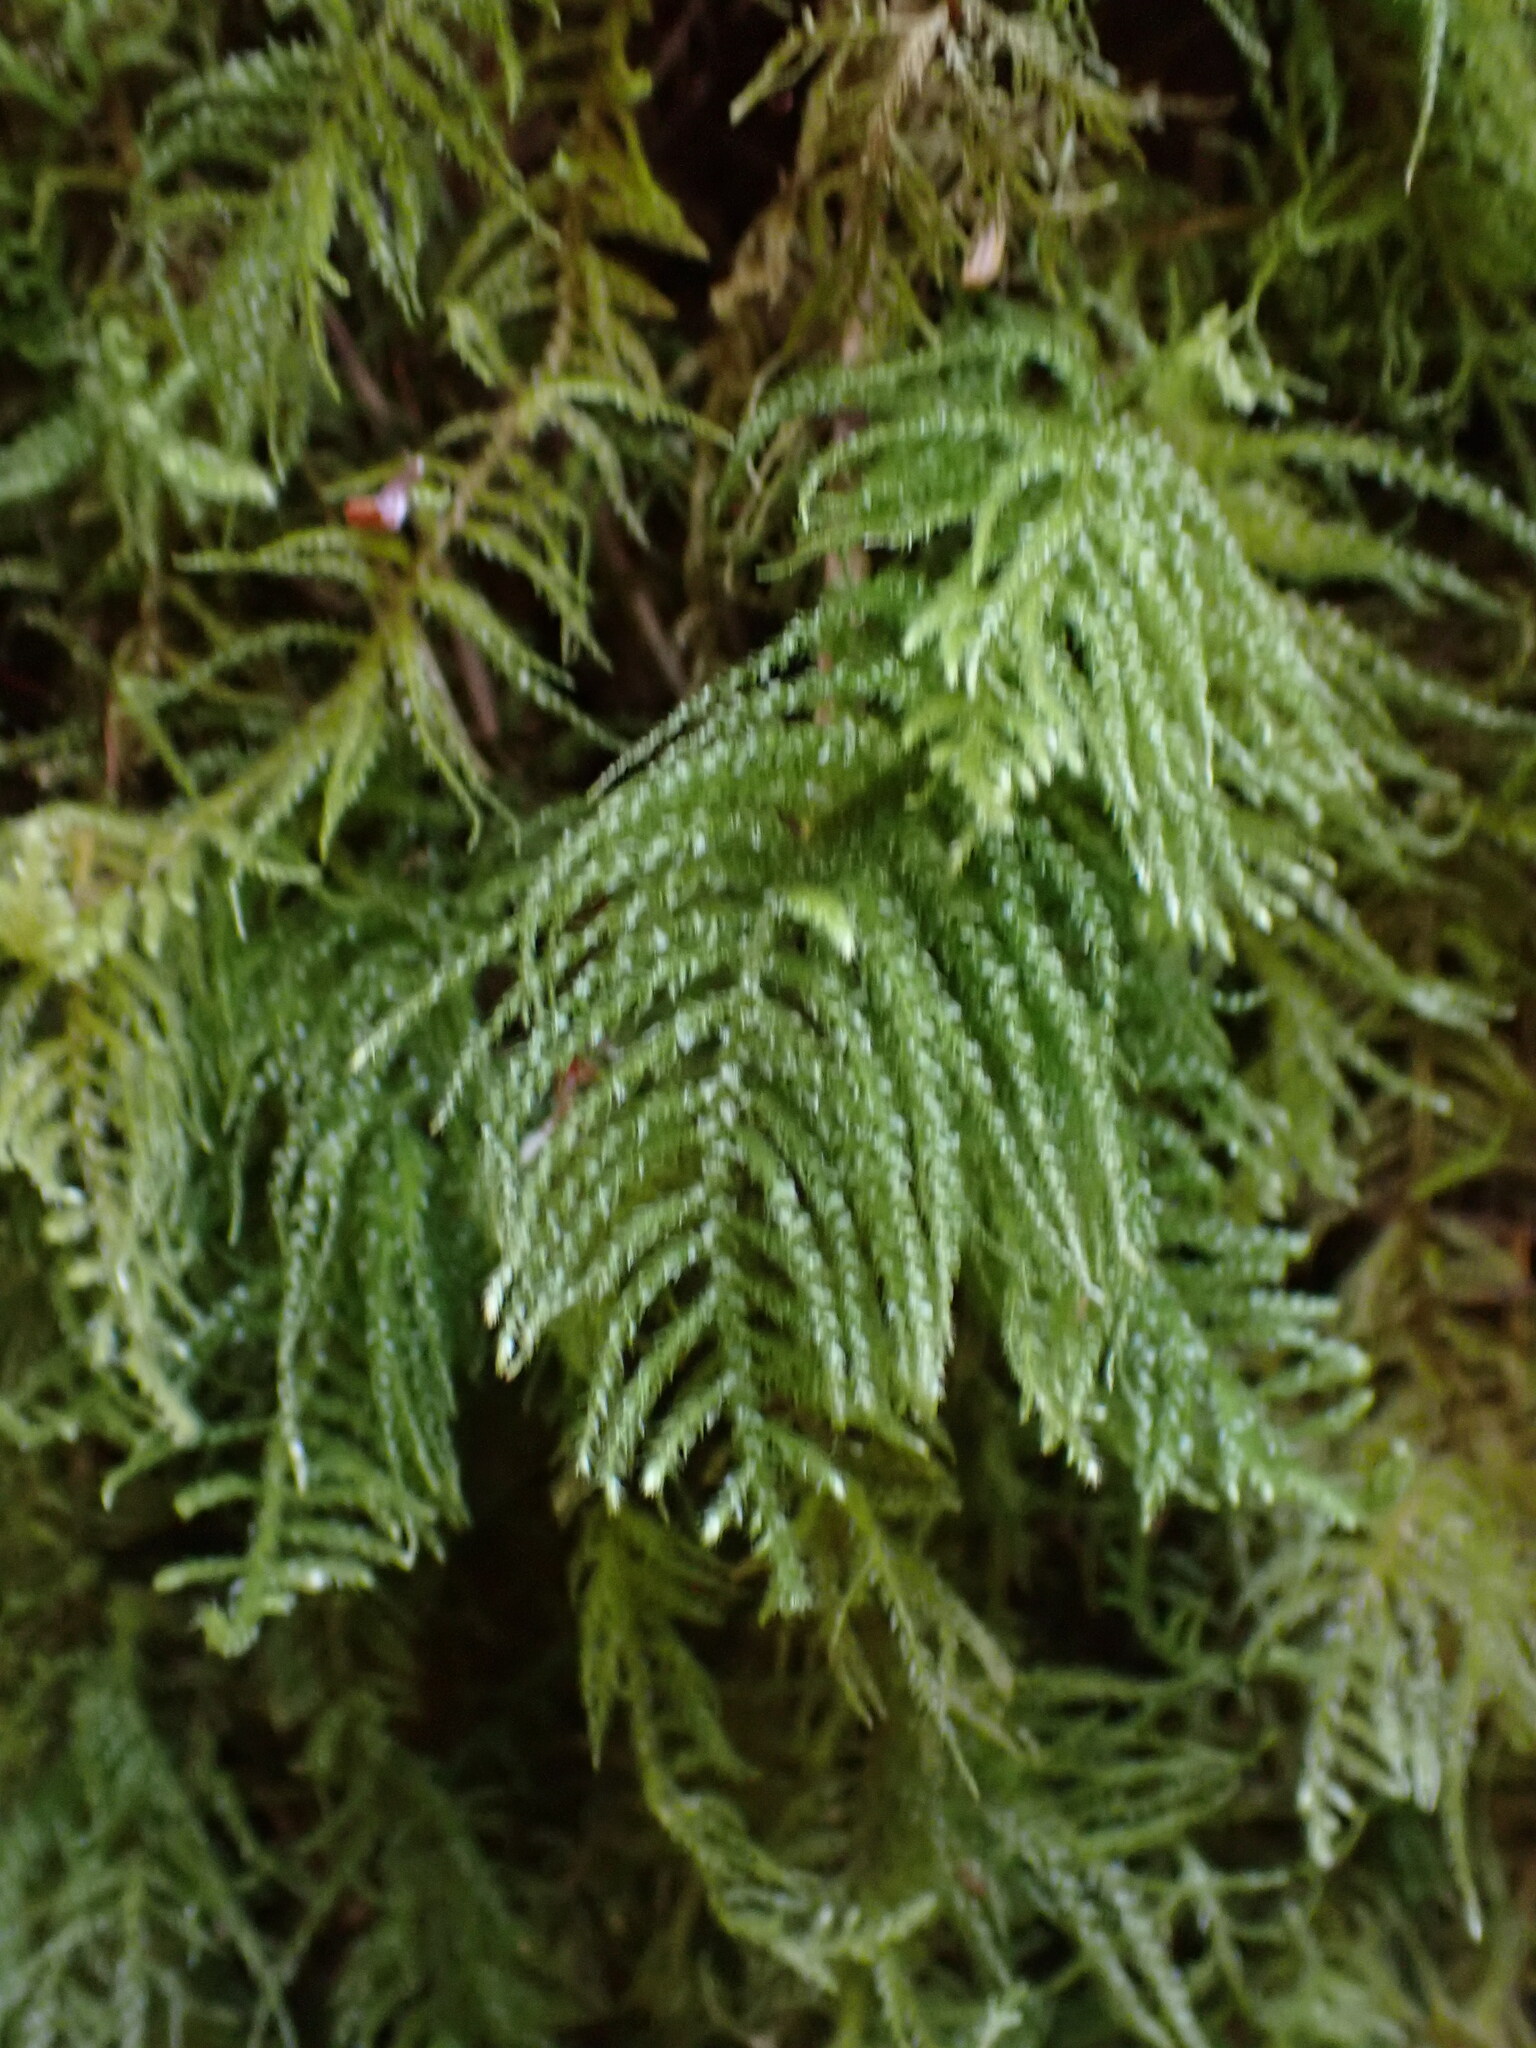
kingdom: Plantae
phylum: Bryophyta
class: Bryopsida
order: Hypnales
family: Brachytheciaceae
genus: Kindbergia
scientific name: Kindbergia oregana
